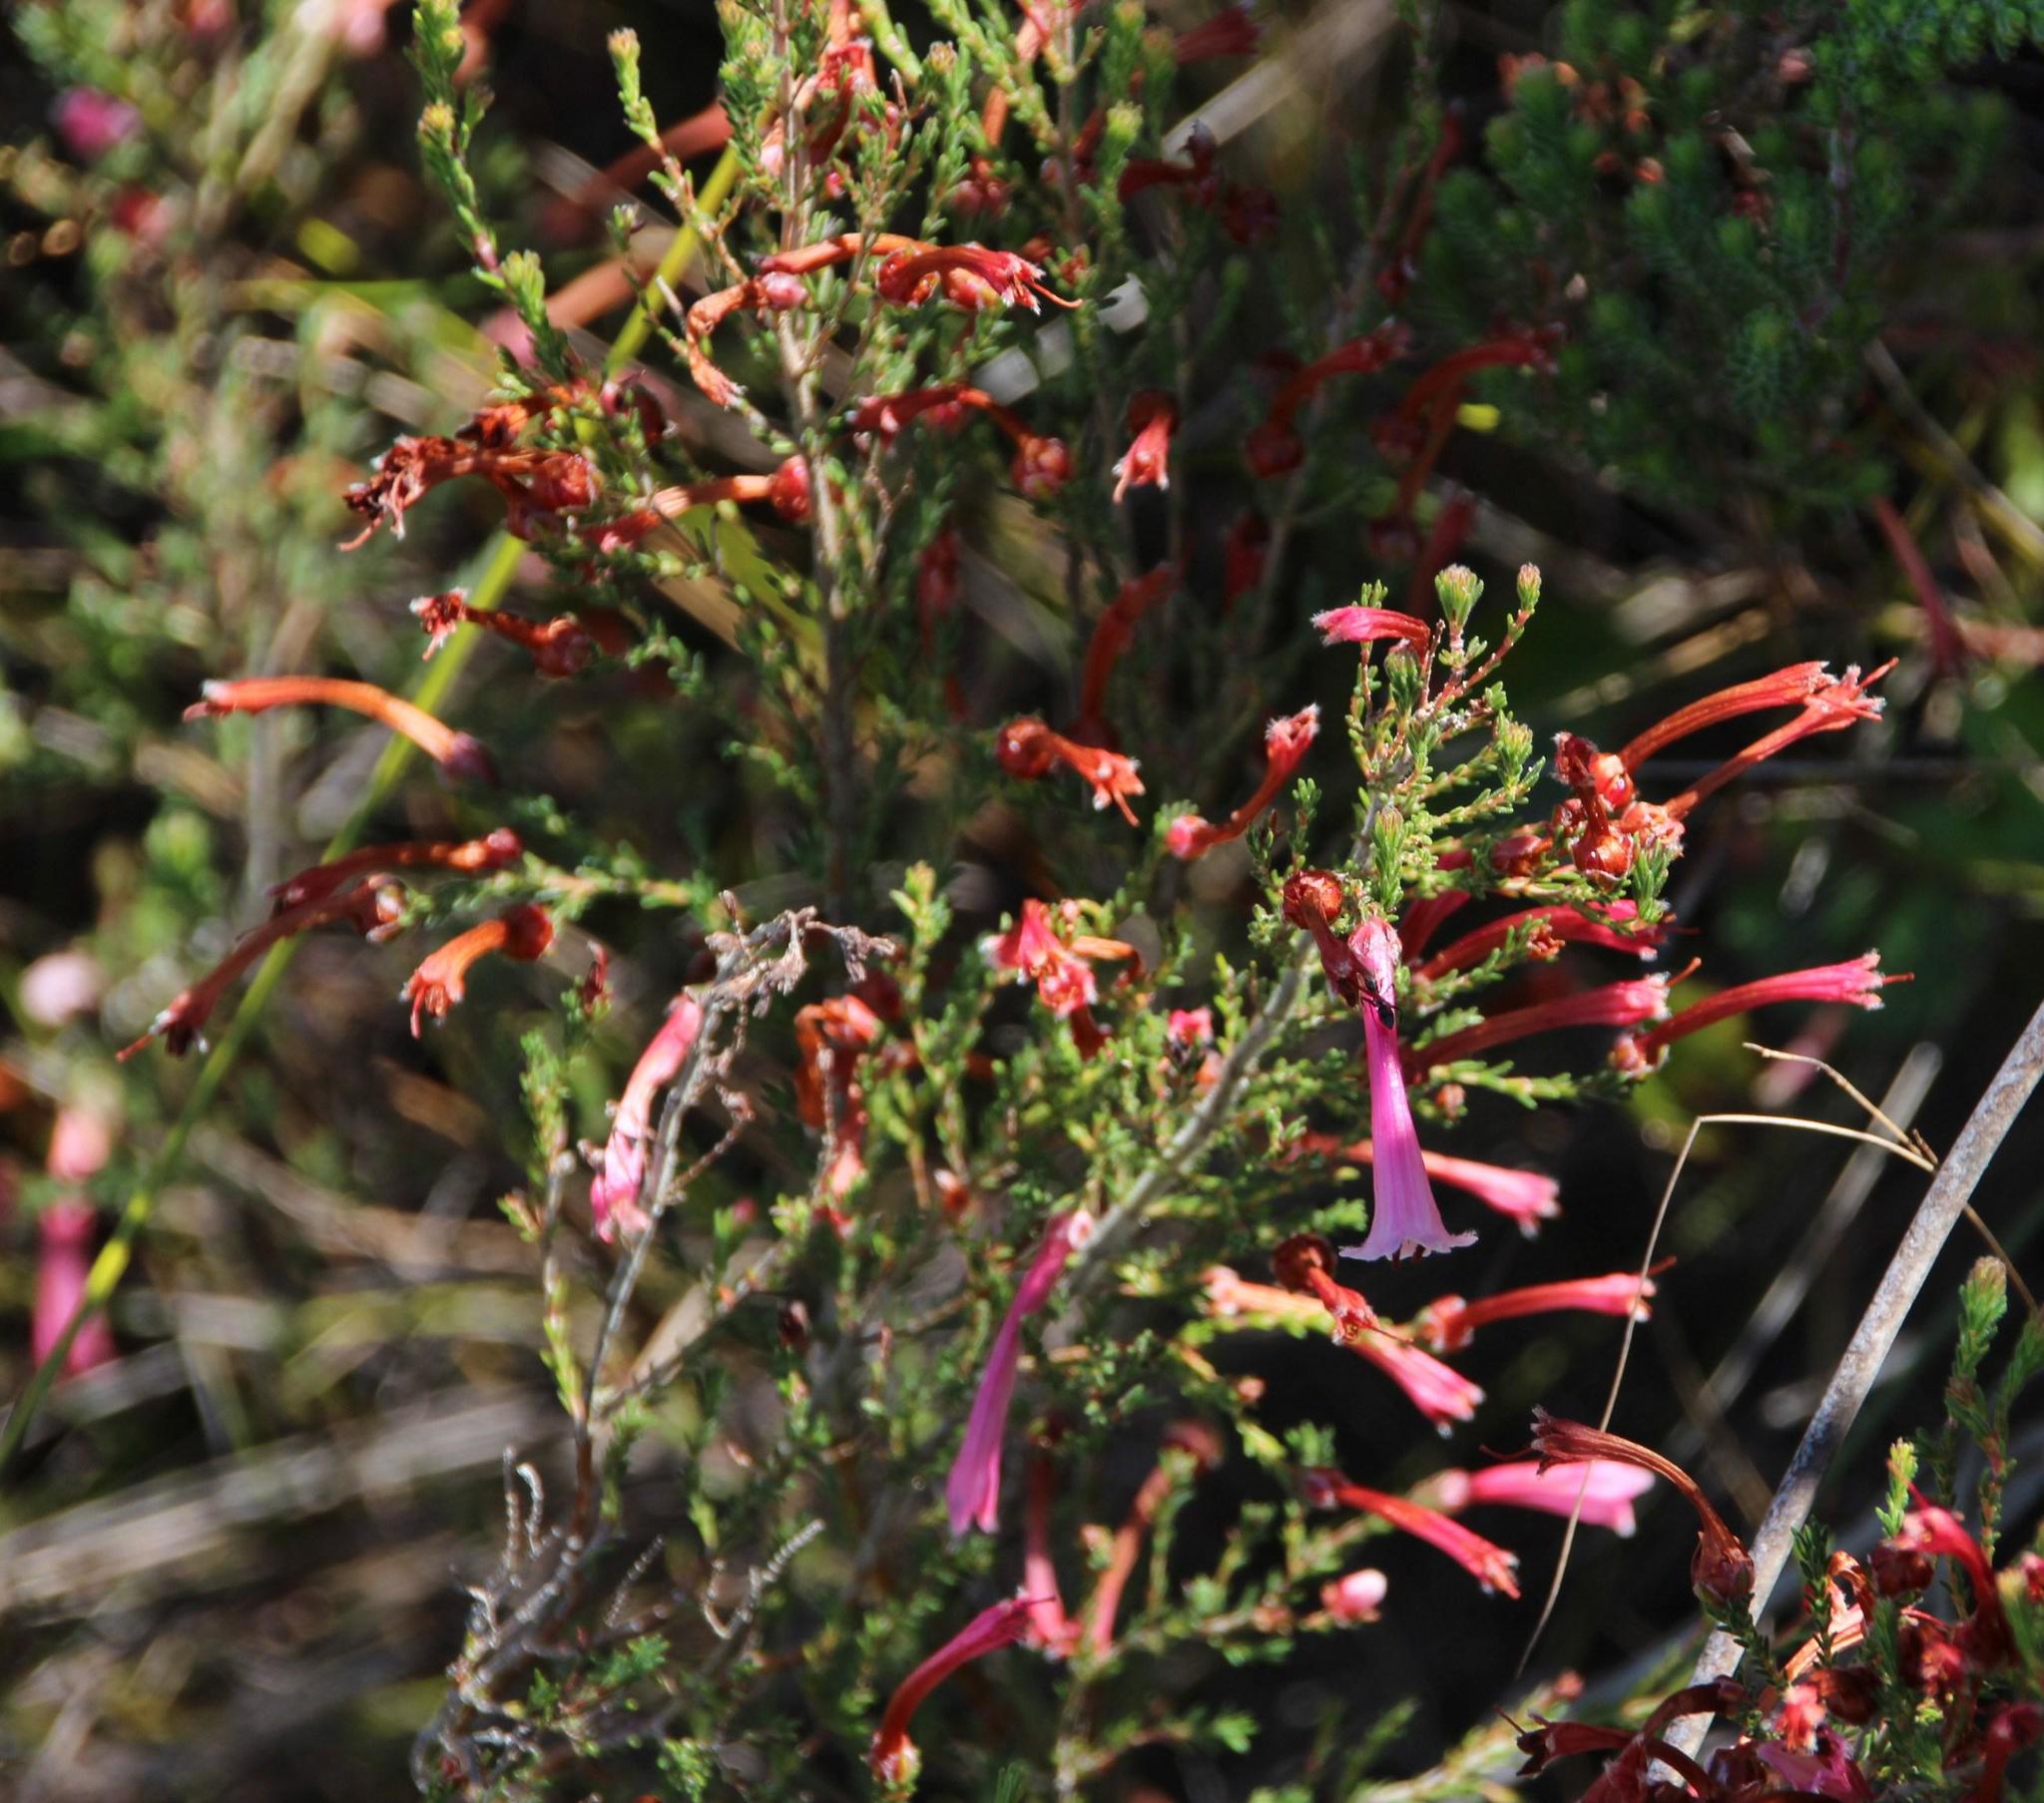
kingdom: Plantae
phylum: Tracheophyta
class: Magnoliopsida
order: Ericales
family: Ericaceae
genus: Erica
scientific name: Erica curviflora
